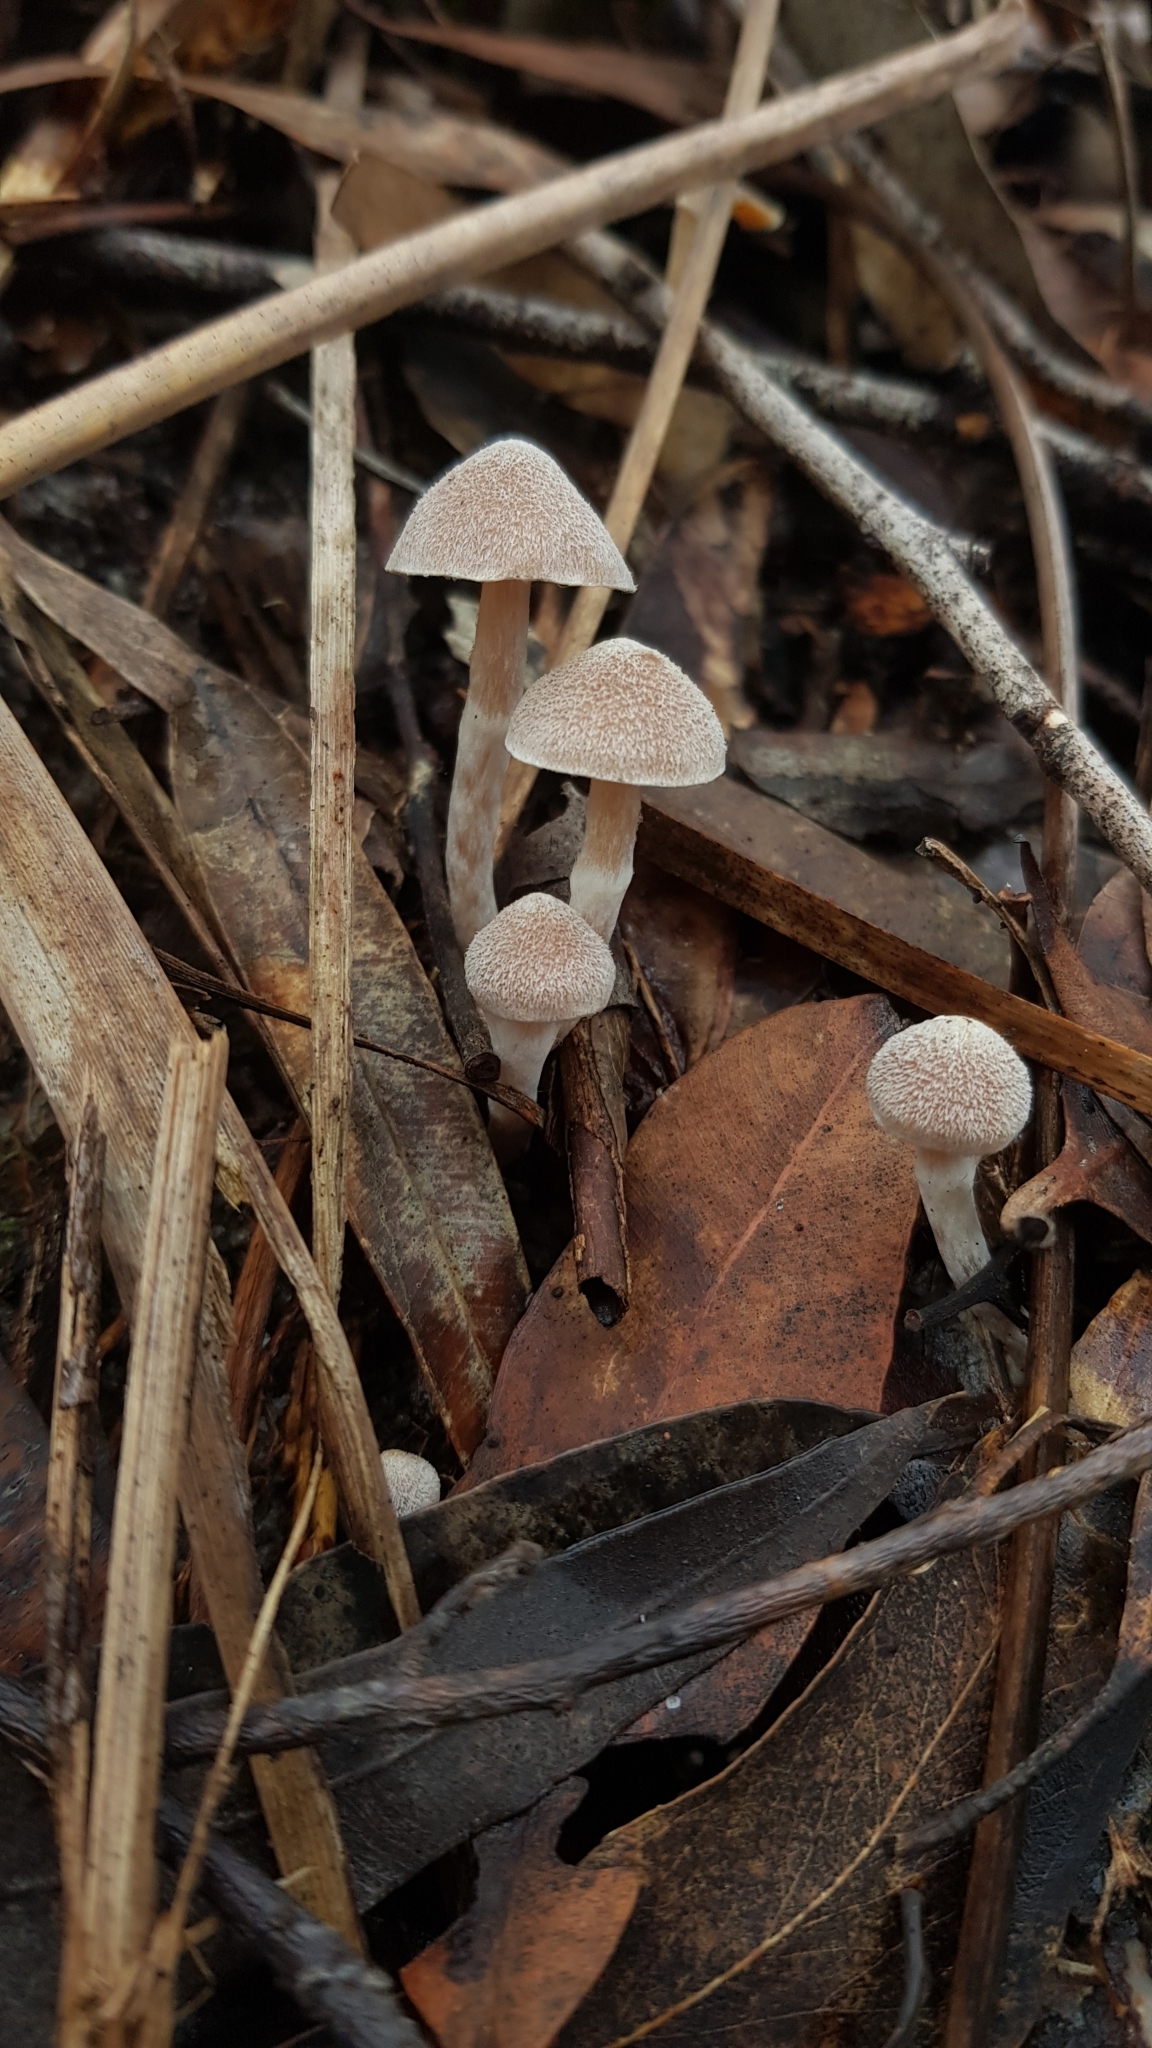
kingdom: Fungi
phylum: Basidiomycota
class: Agaricomycetes
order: Agaricales
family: Inocybaceae
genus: Inocybe
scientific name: Inocybe austrofibrillosa
